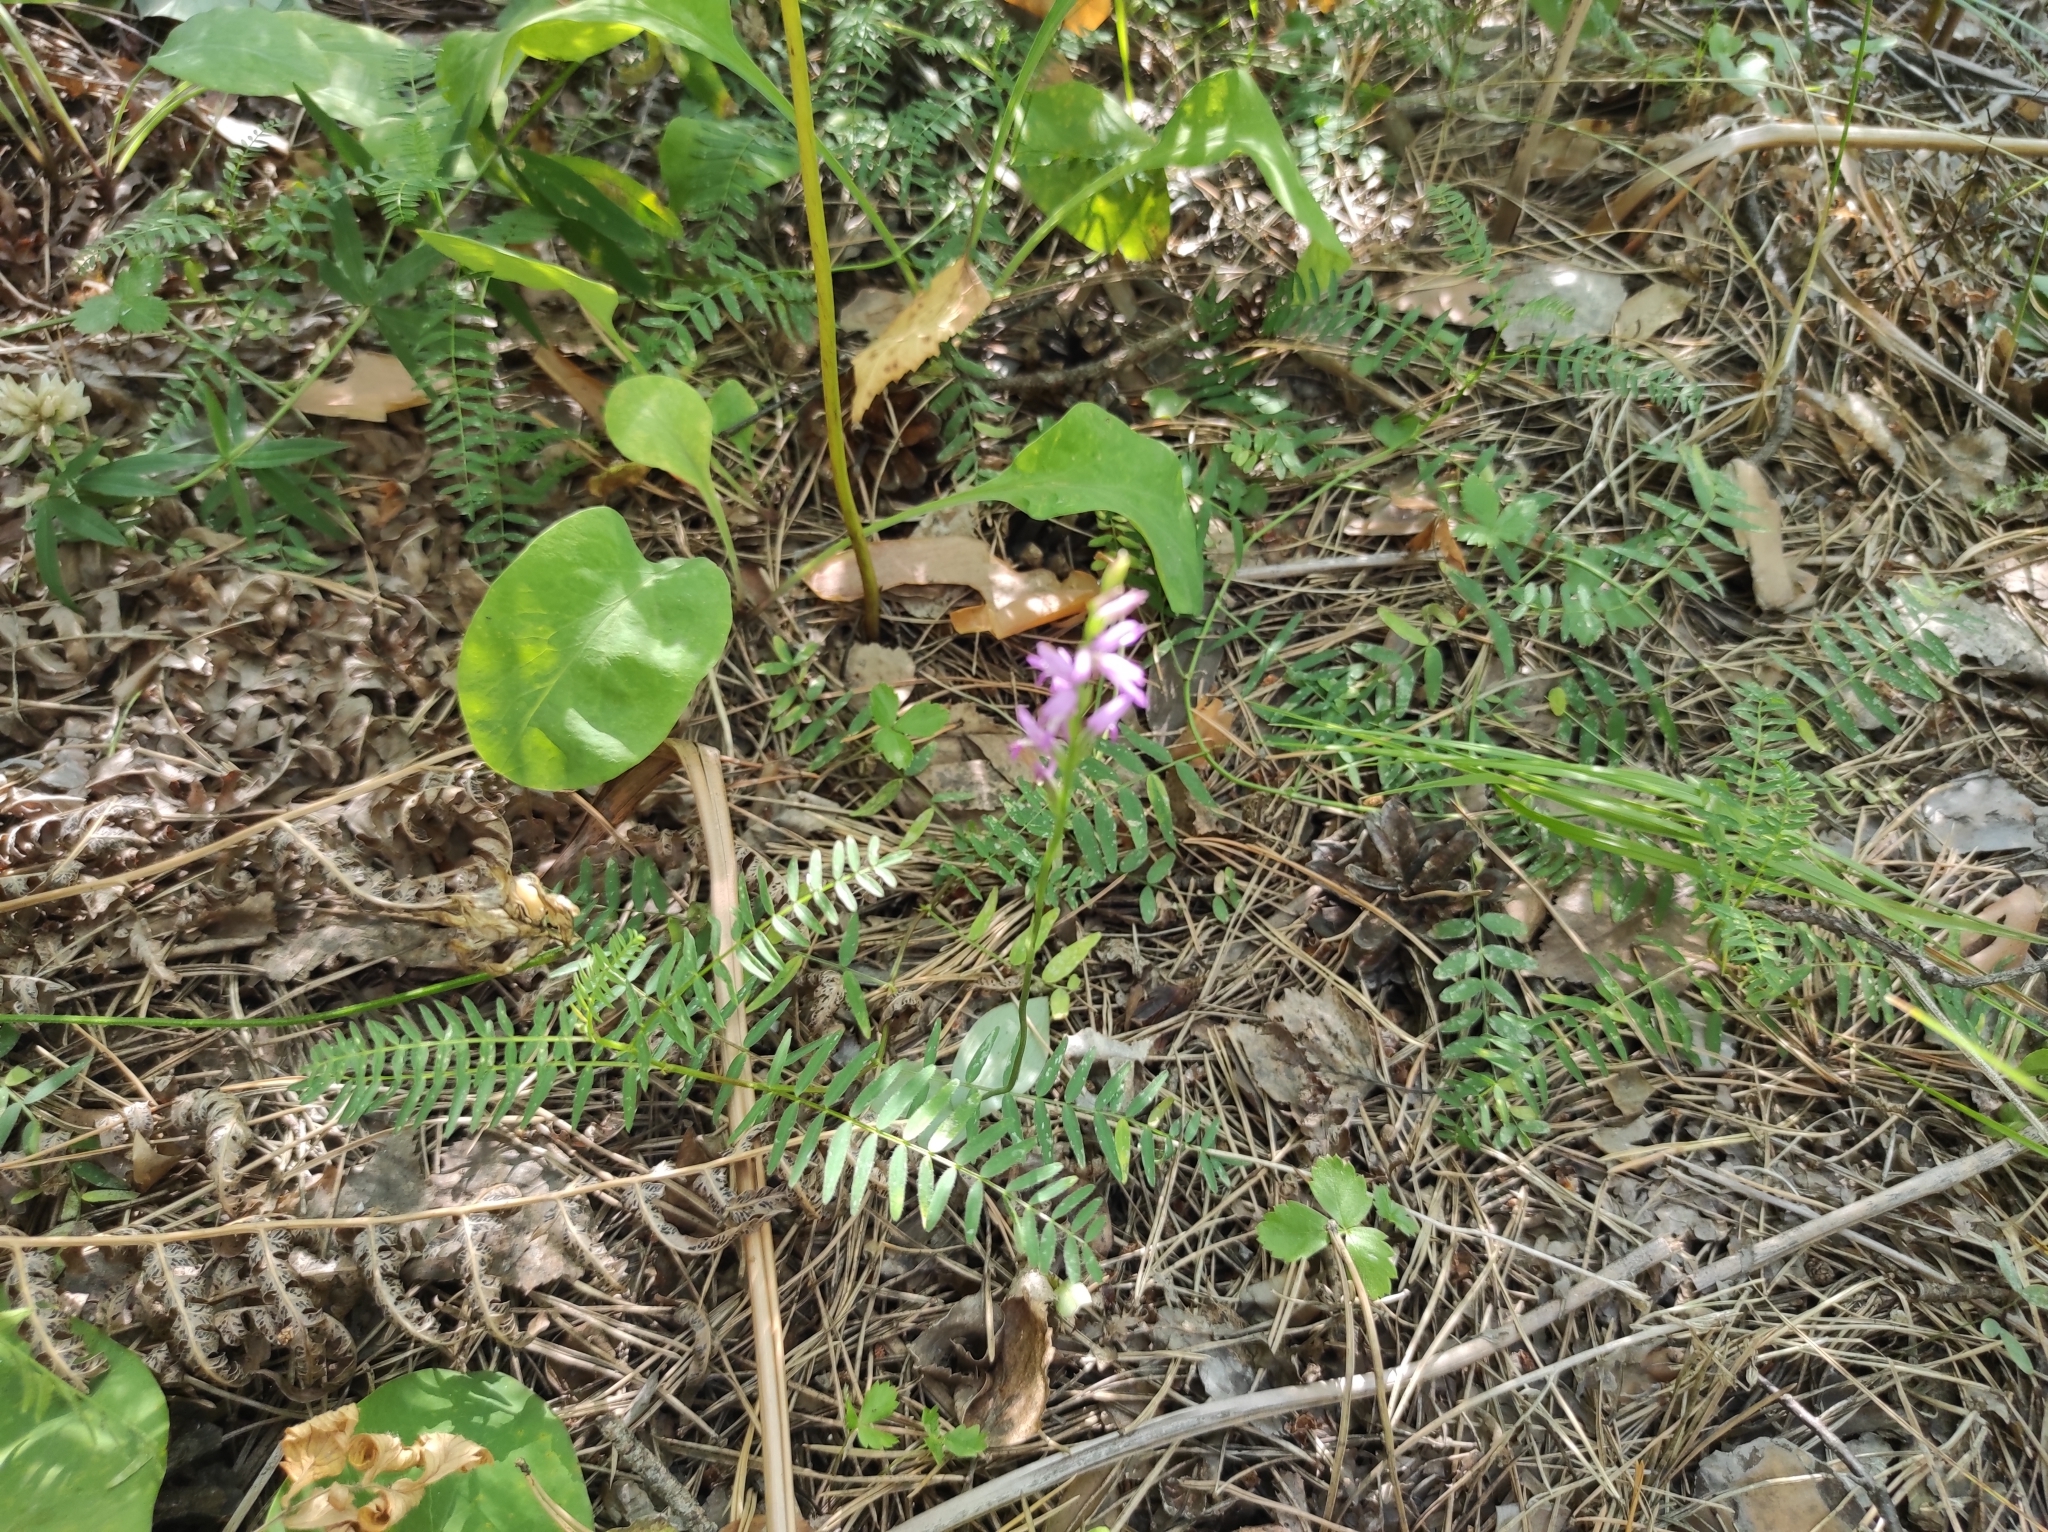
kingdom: Plantae
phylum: Tracheophyta
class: Liliopsida
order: Asparagales
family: Orchidaceae
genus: Hemipilia
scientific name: Hemipilia cucullata
